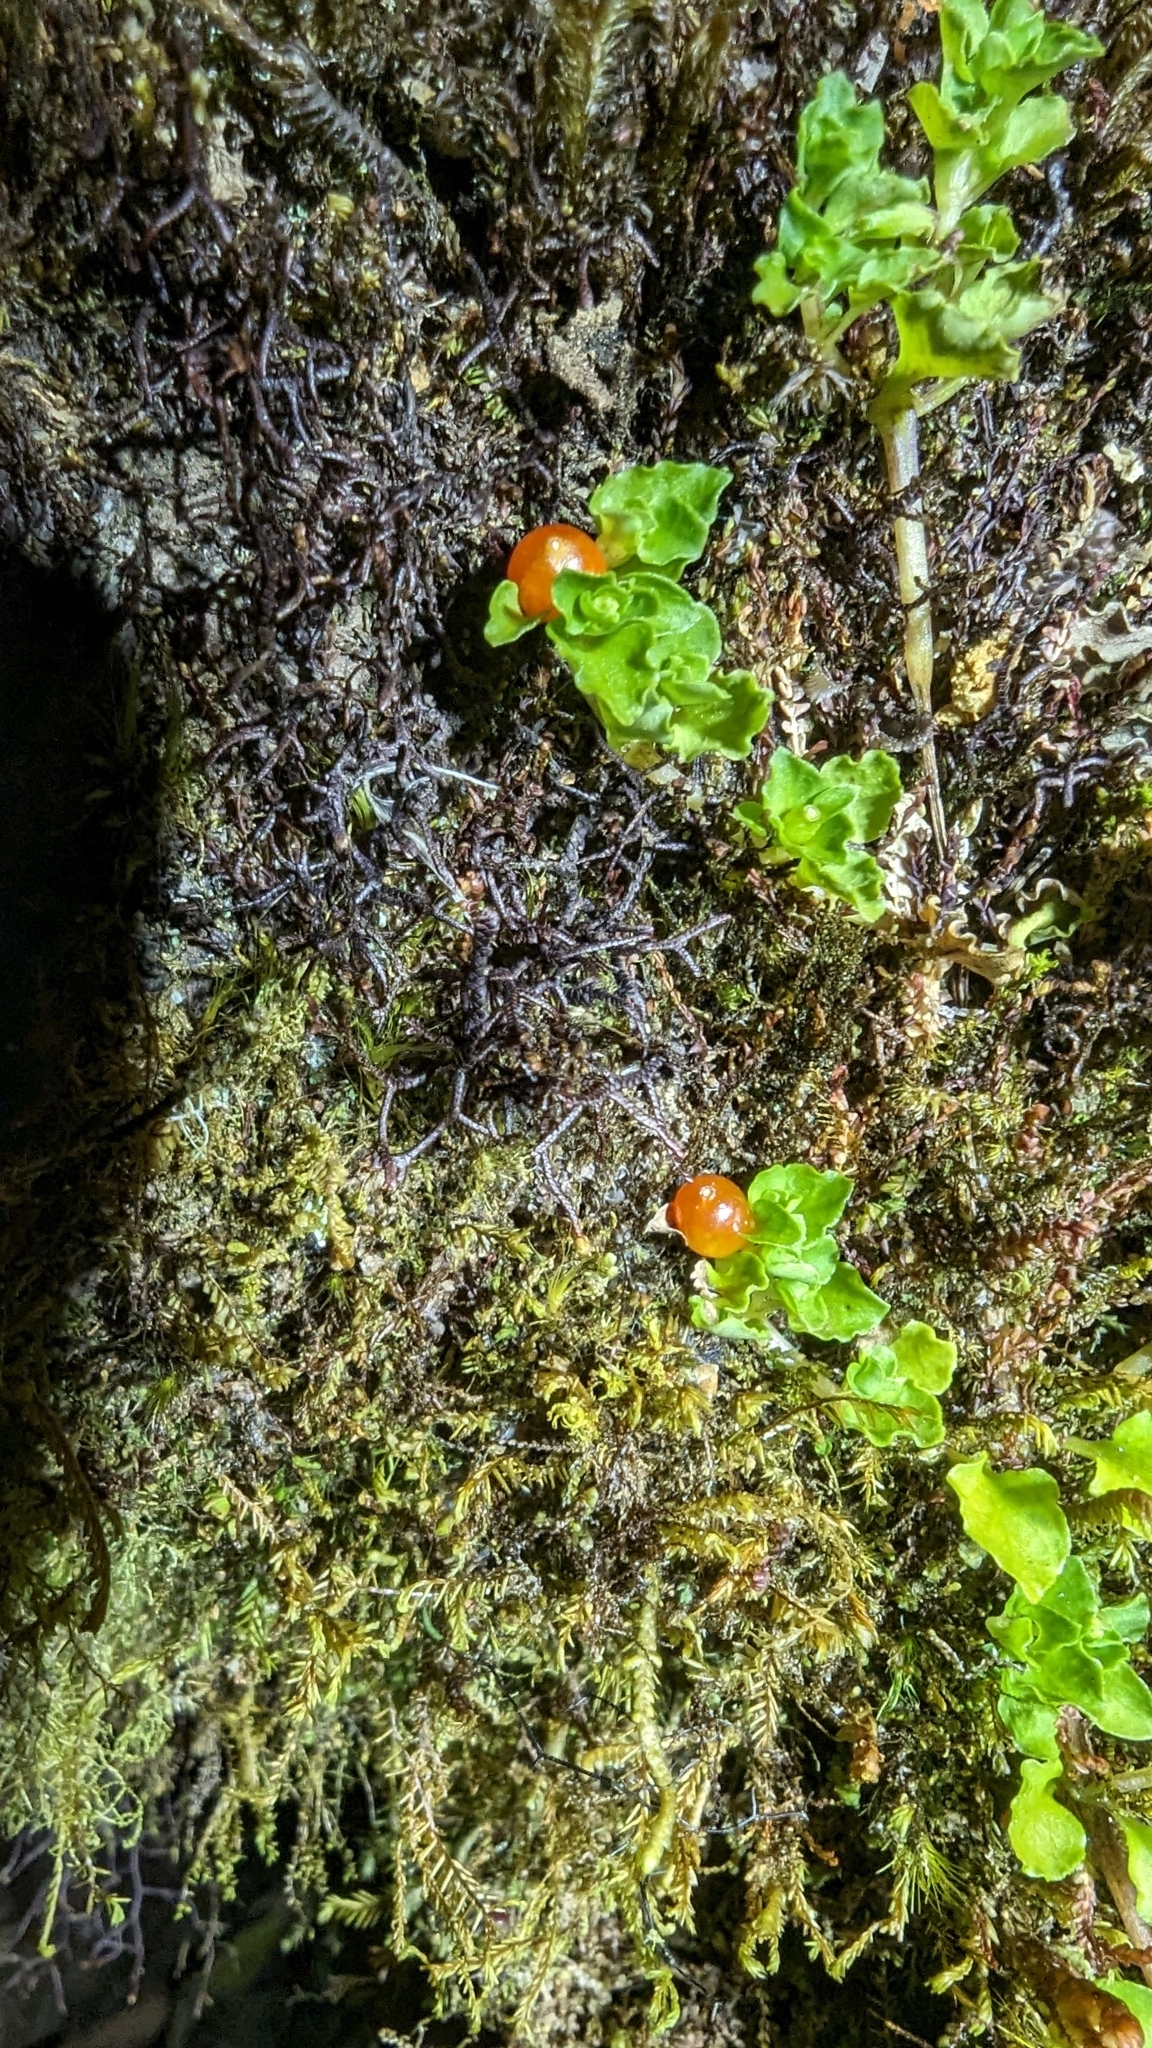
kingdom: Plantae
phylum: Tracheophyta
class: Magnoliopsida
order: Gentianales
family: Rubiaceae
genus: Nertera
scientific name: Nertera granadensis
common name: Beadplant
